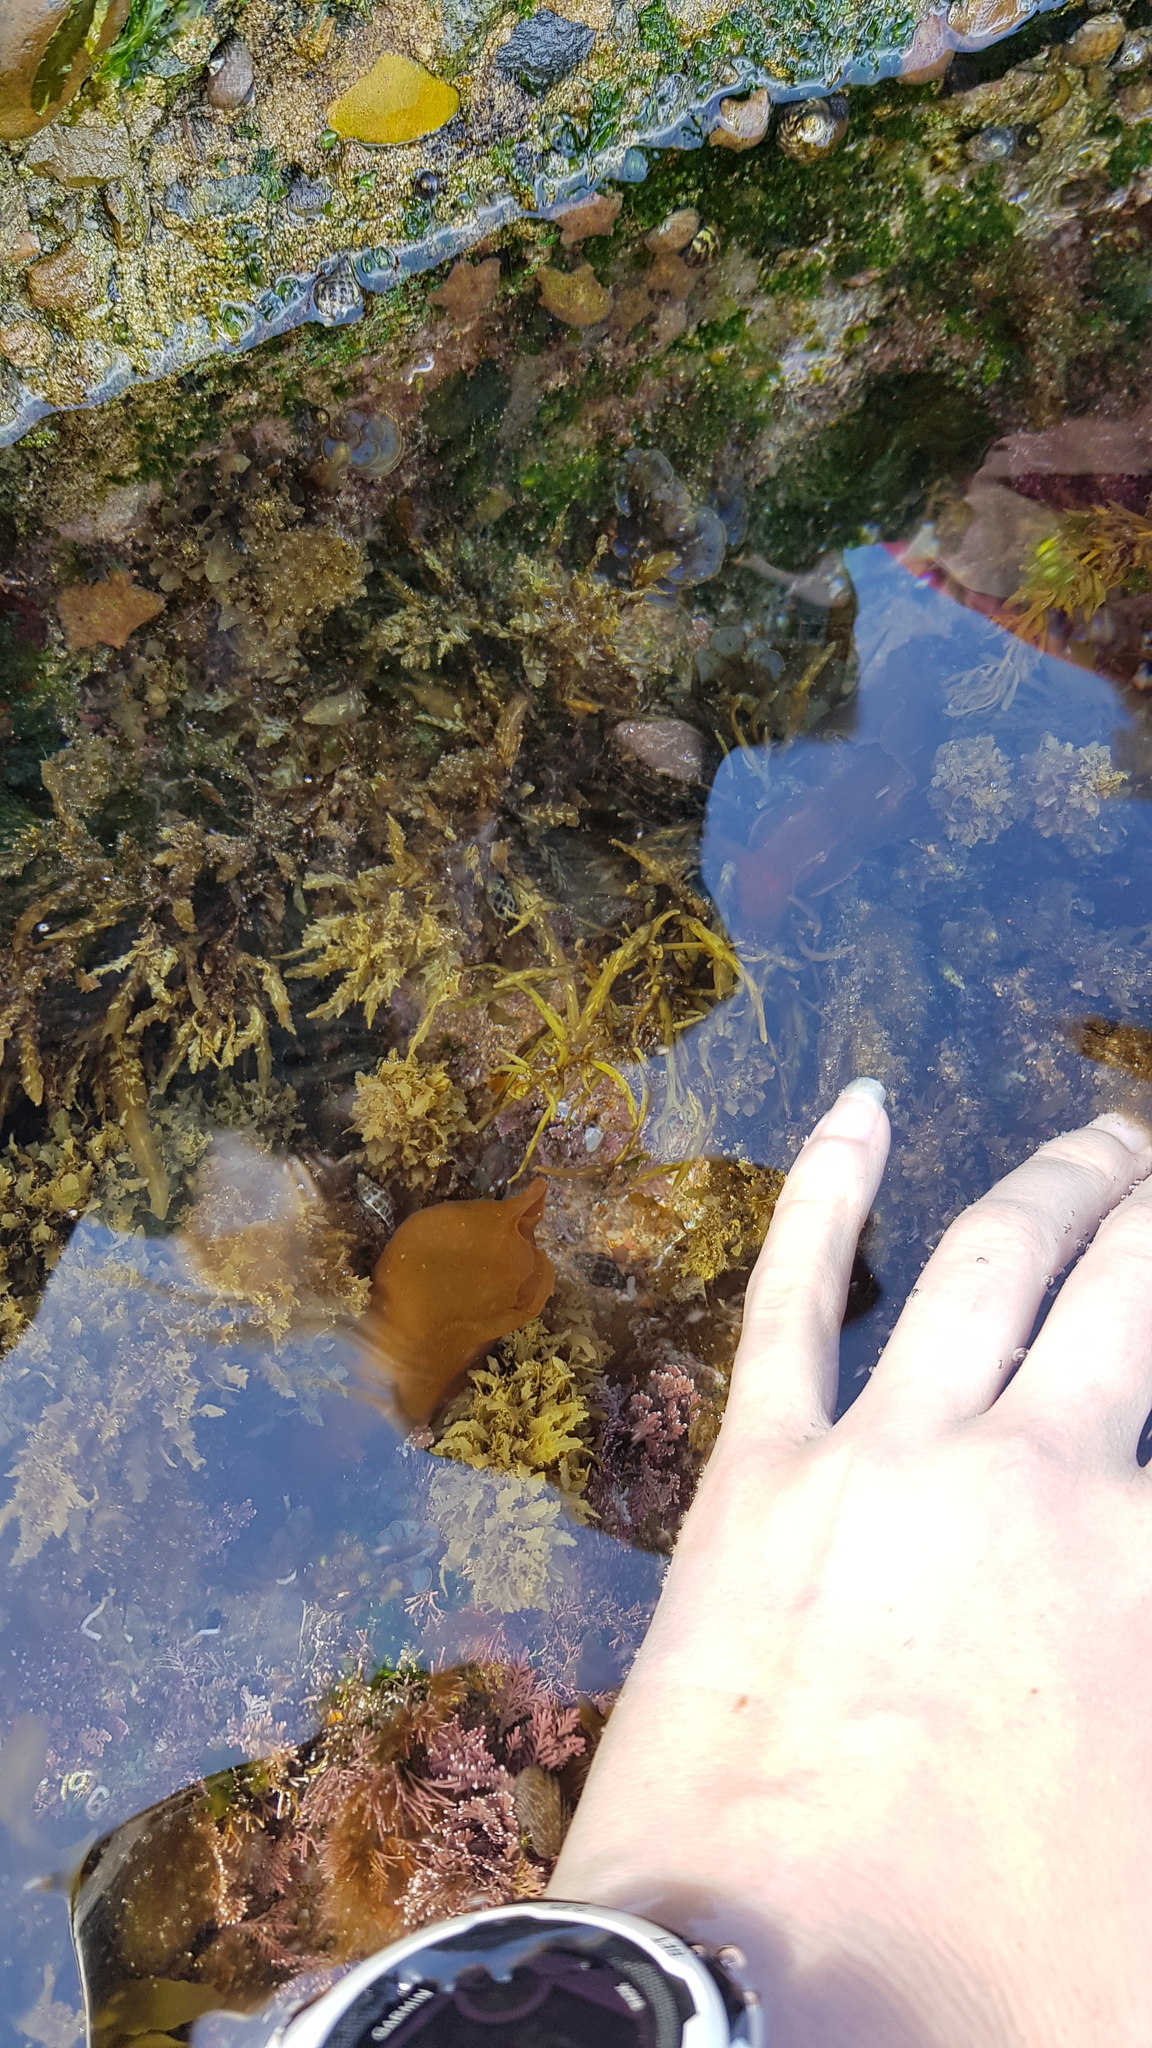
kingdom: Animalia
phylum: Mollusca
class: Gastropoda
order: Aplysiida
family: Aplysiidae
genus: Aplysia
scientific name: Aplysia juliana
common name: Walking sea hare
